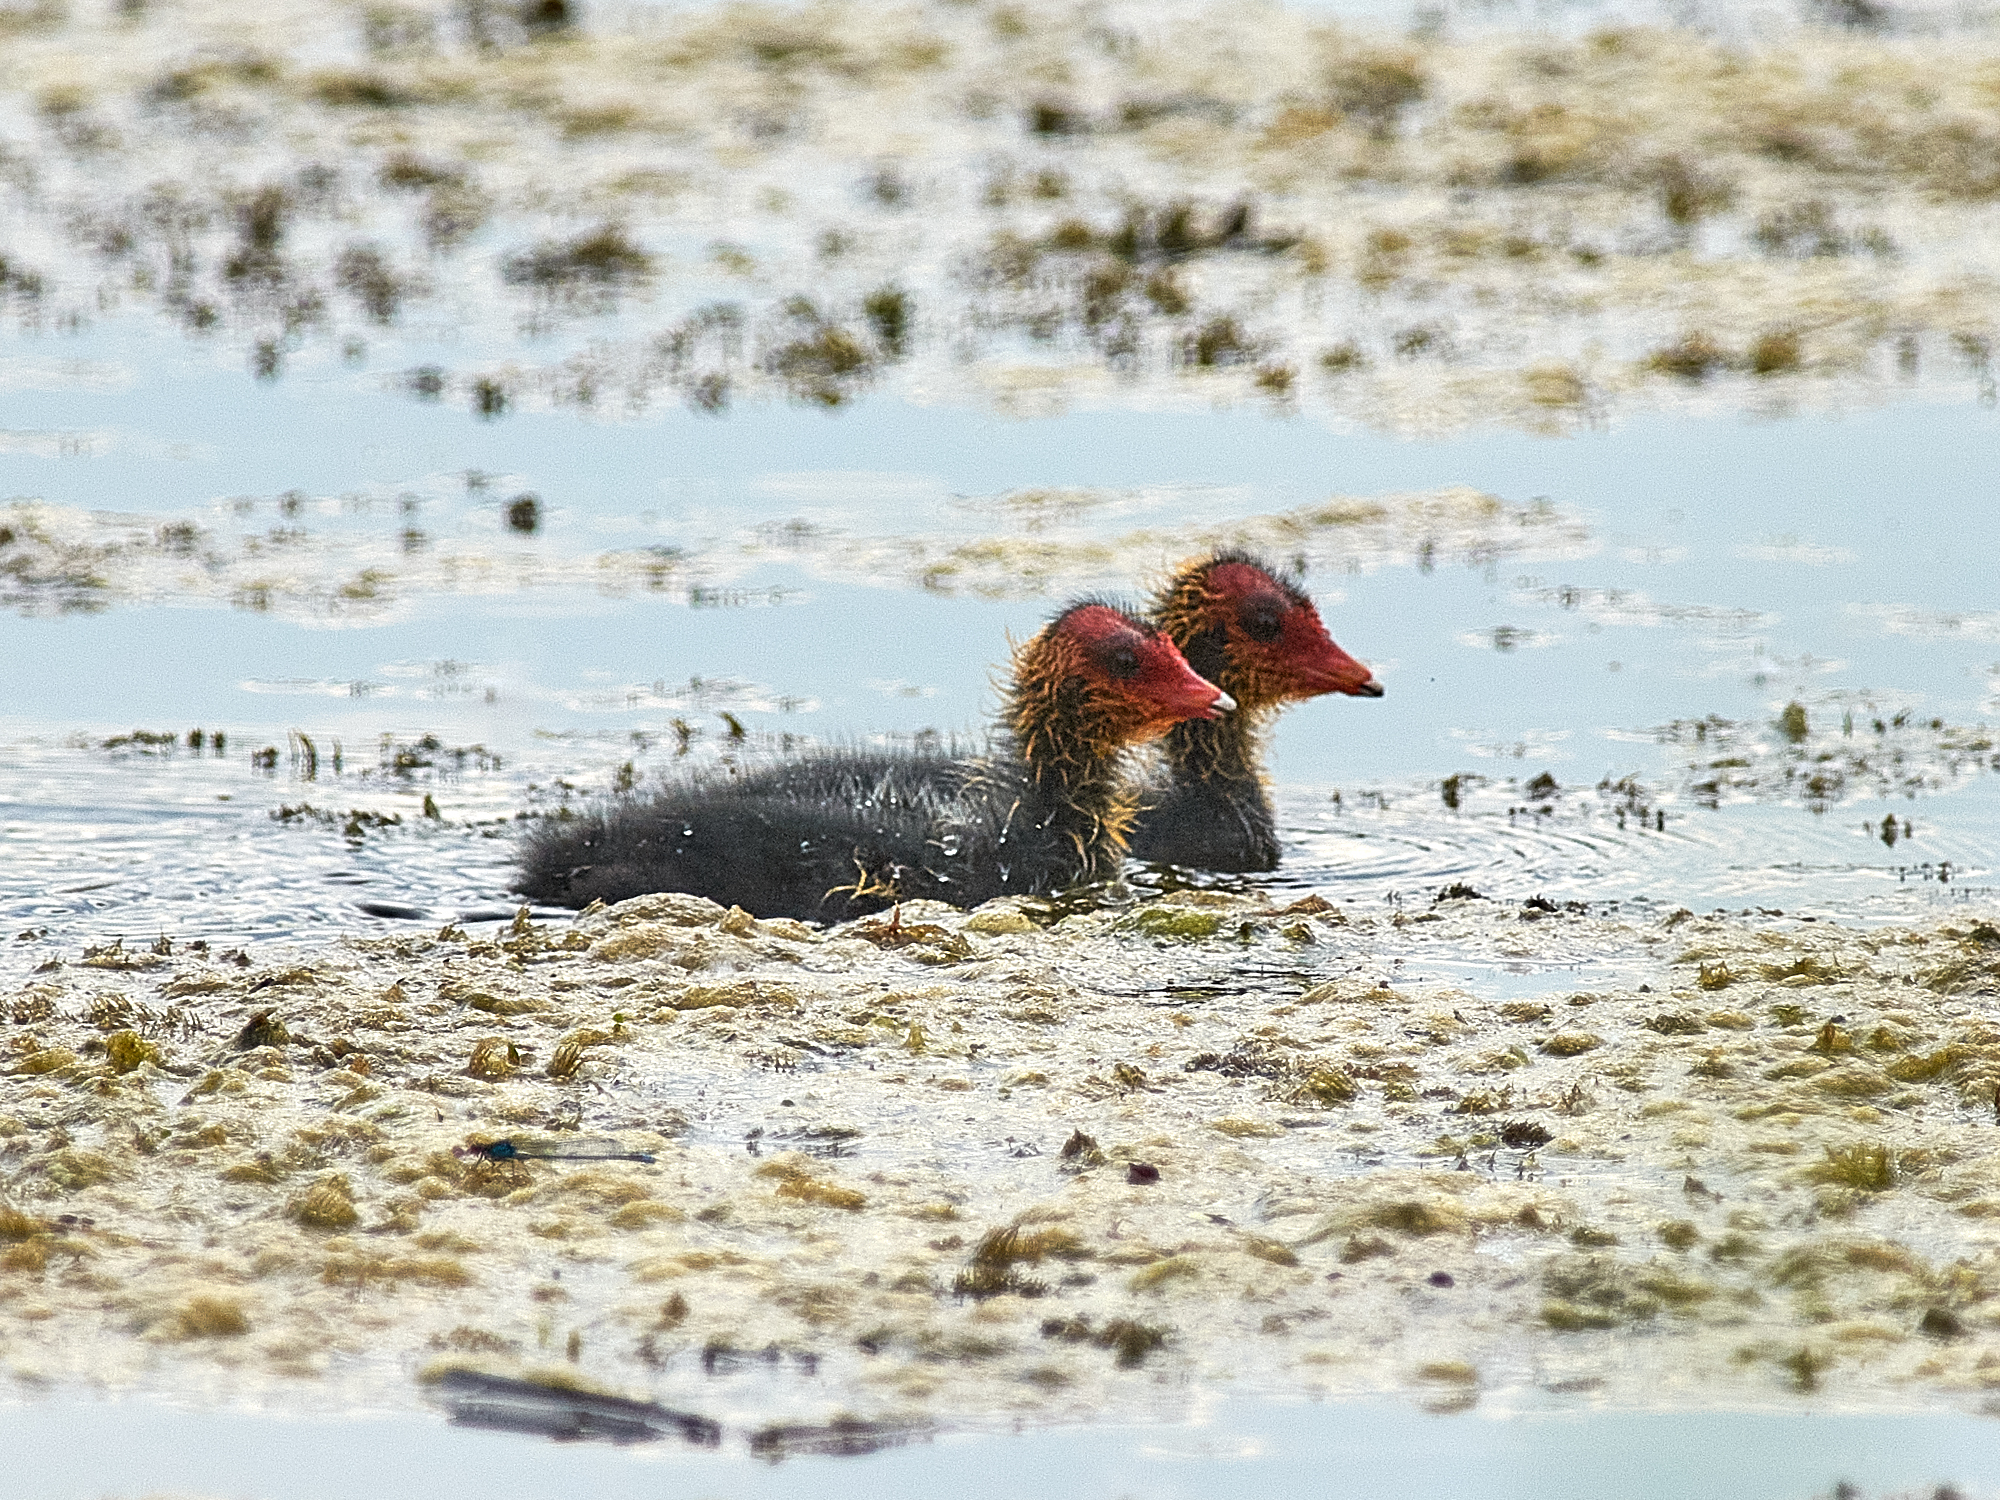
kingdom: Animalia
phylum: Chordata
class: Aves
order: Gruiformes
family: Rallidae
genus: Fulica
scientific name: Fulica atra
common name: Eurasian coot
